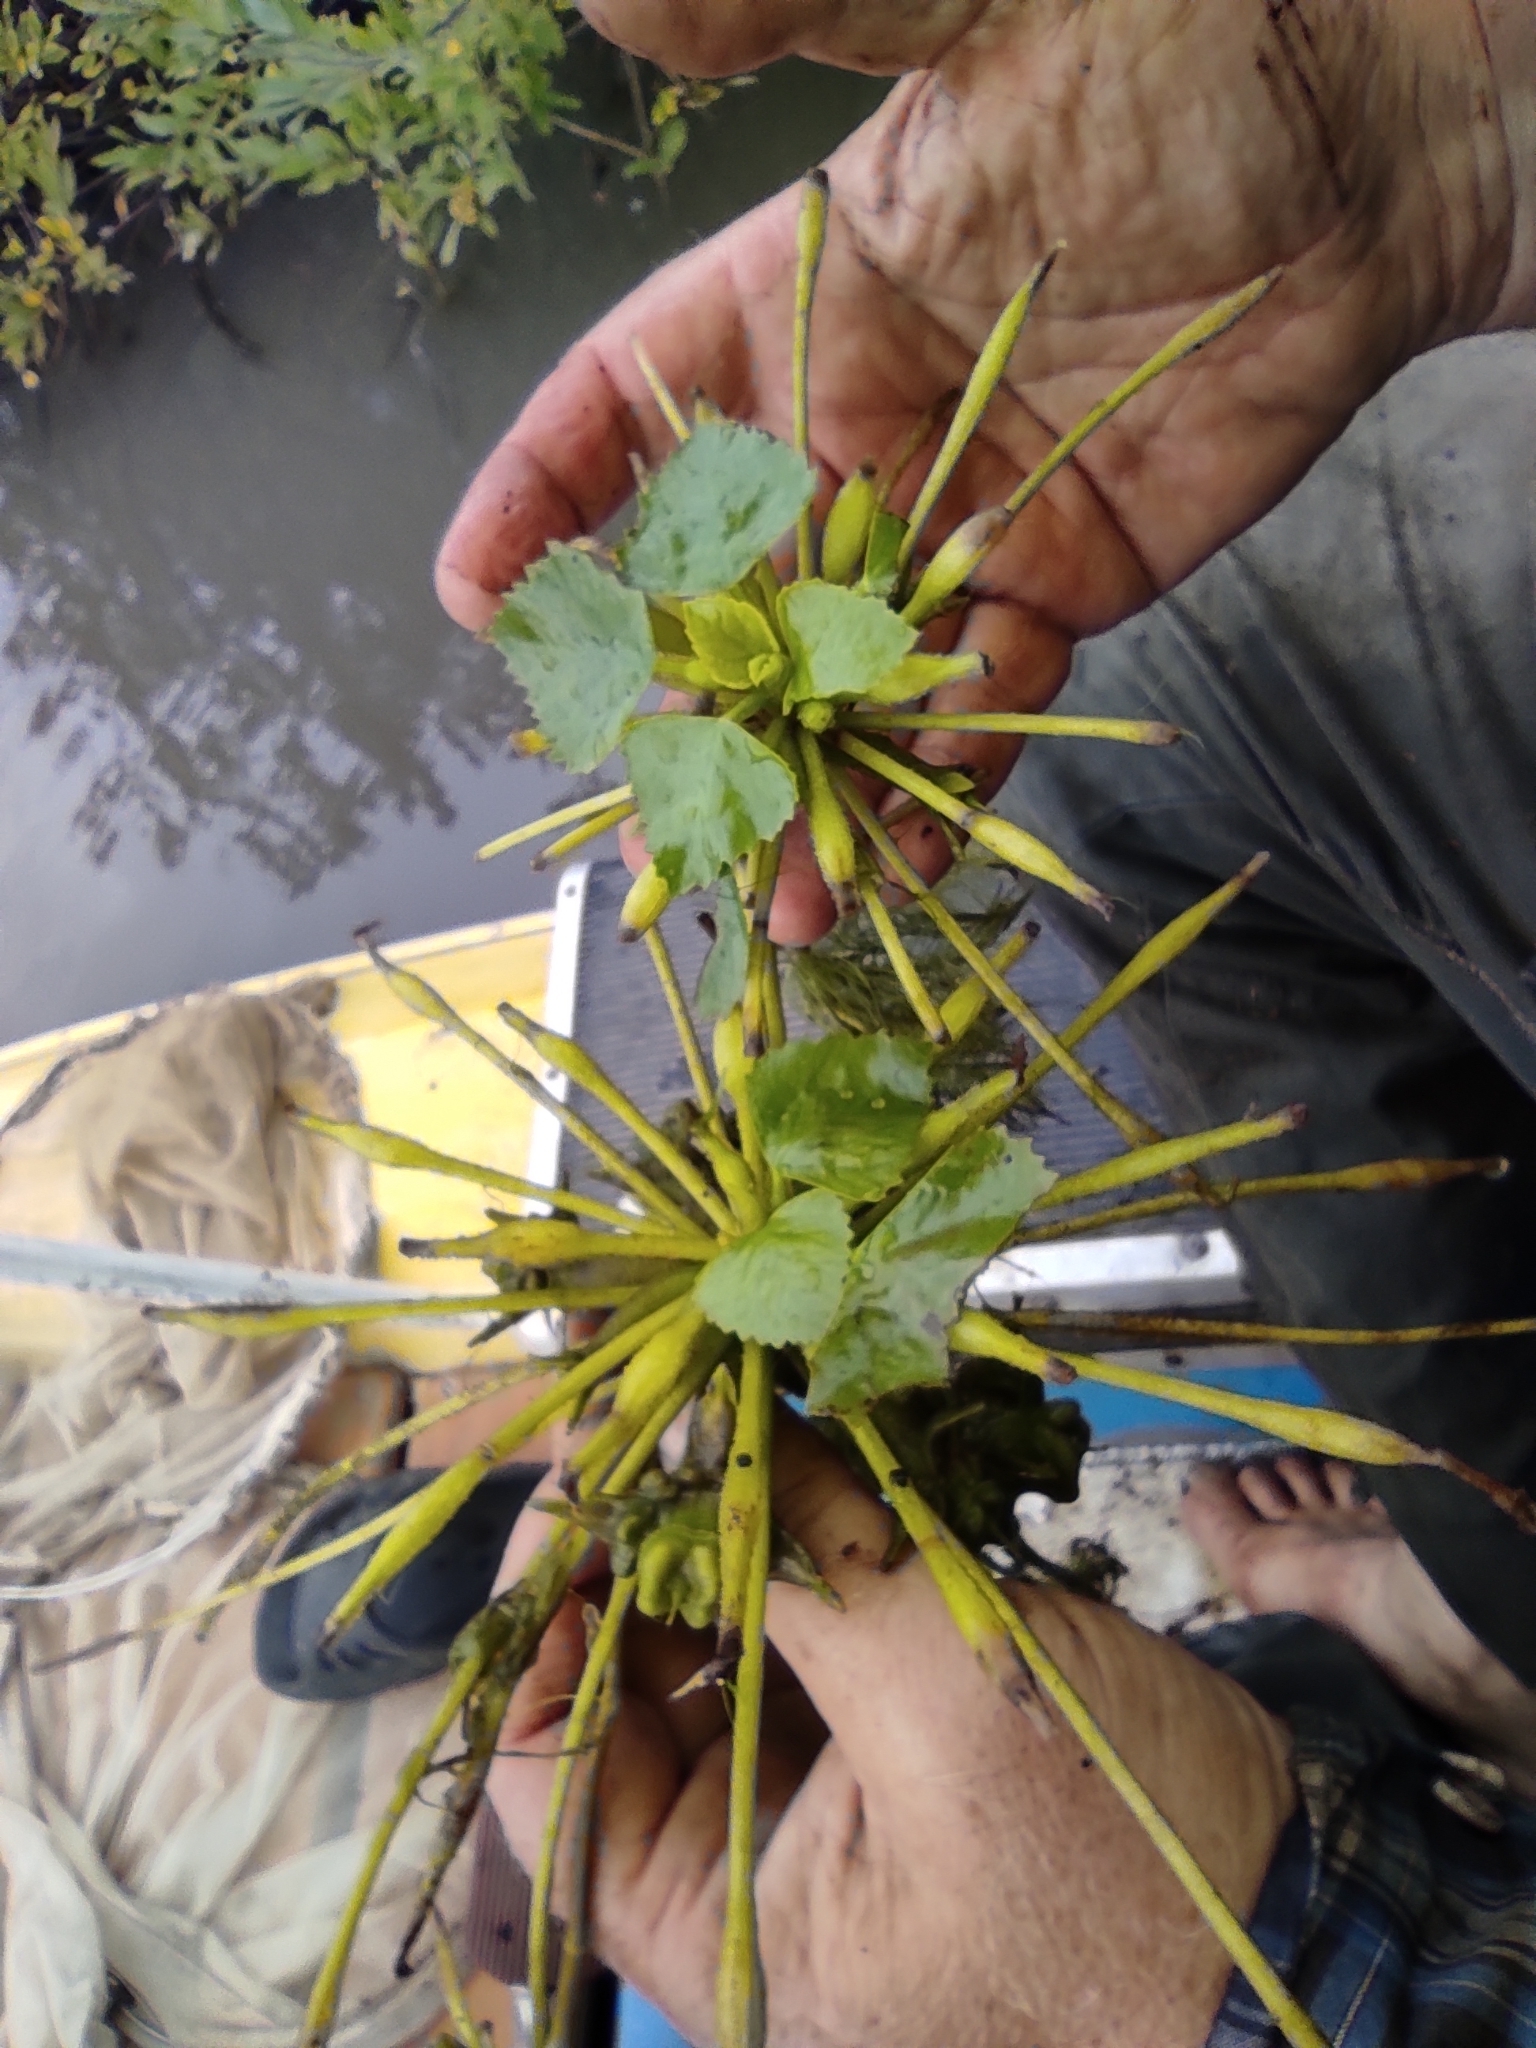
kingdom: Plantae
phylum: Tracheophyta
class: Magnoliopsida
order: Myrtales
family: Lythraceae
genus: Trapa
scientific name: Trapa natans
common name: Water chestnut
